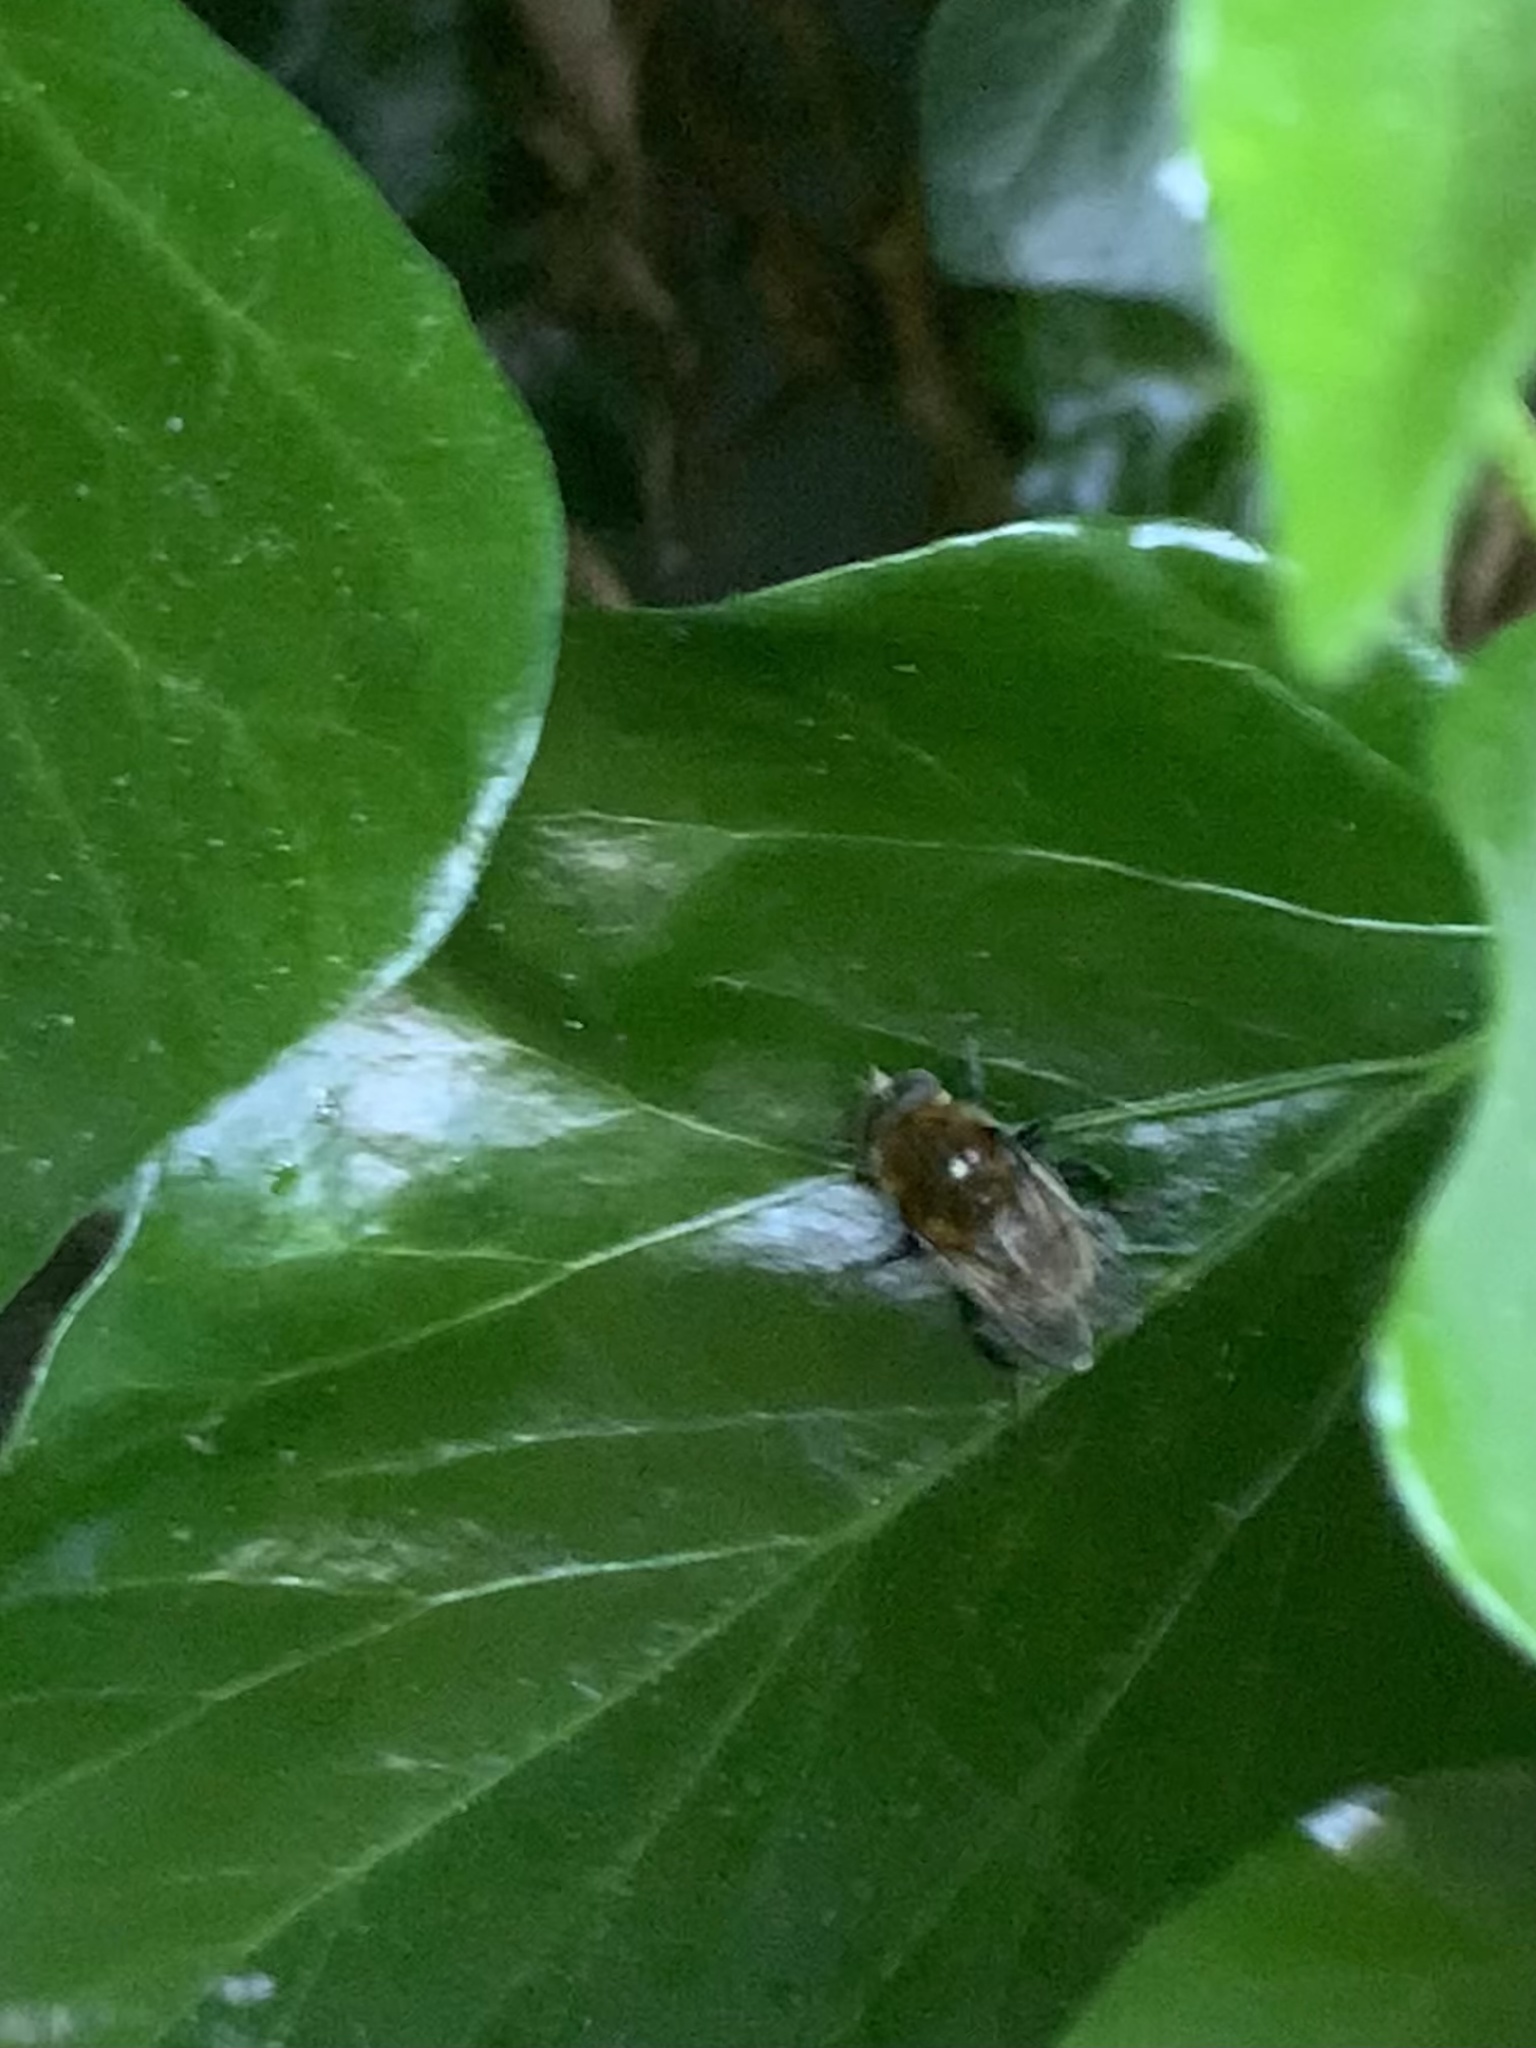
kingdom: Animalia
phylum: Arthropoda
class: Insecta
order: Diptera
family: Syrphidae
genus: Merodon
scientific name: Merodon equestris
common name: Greater bulb-fly
